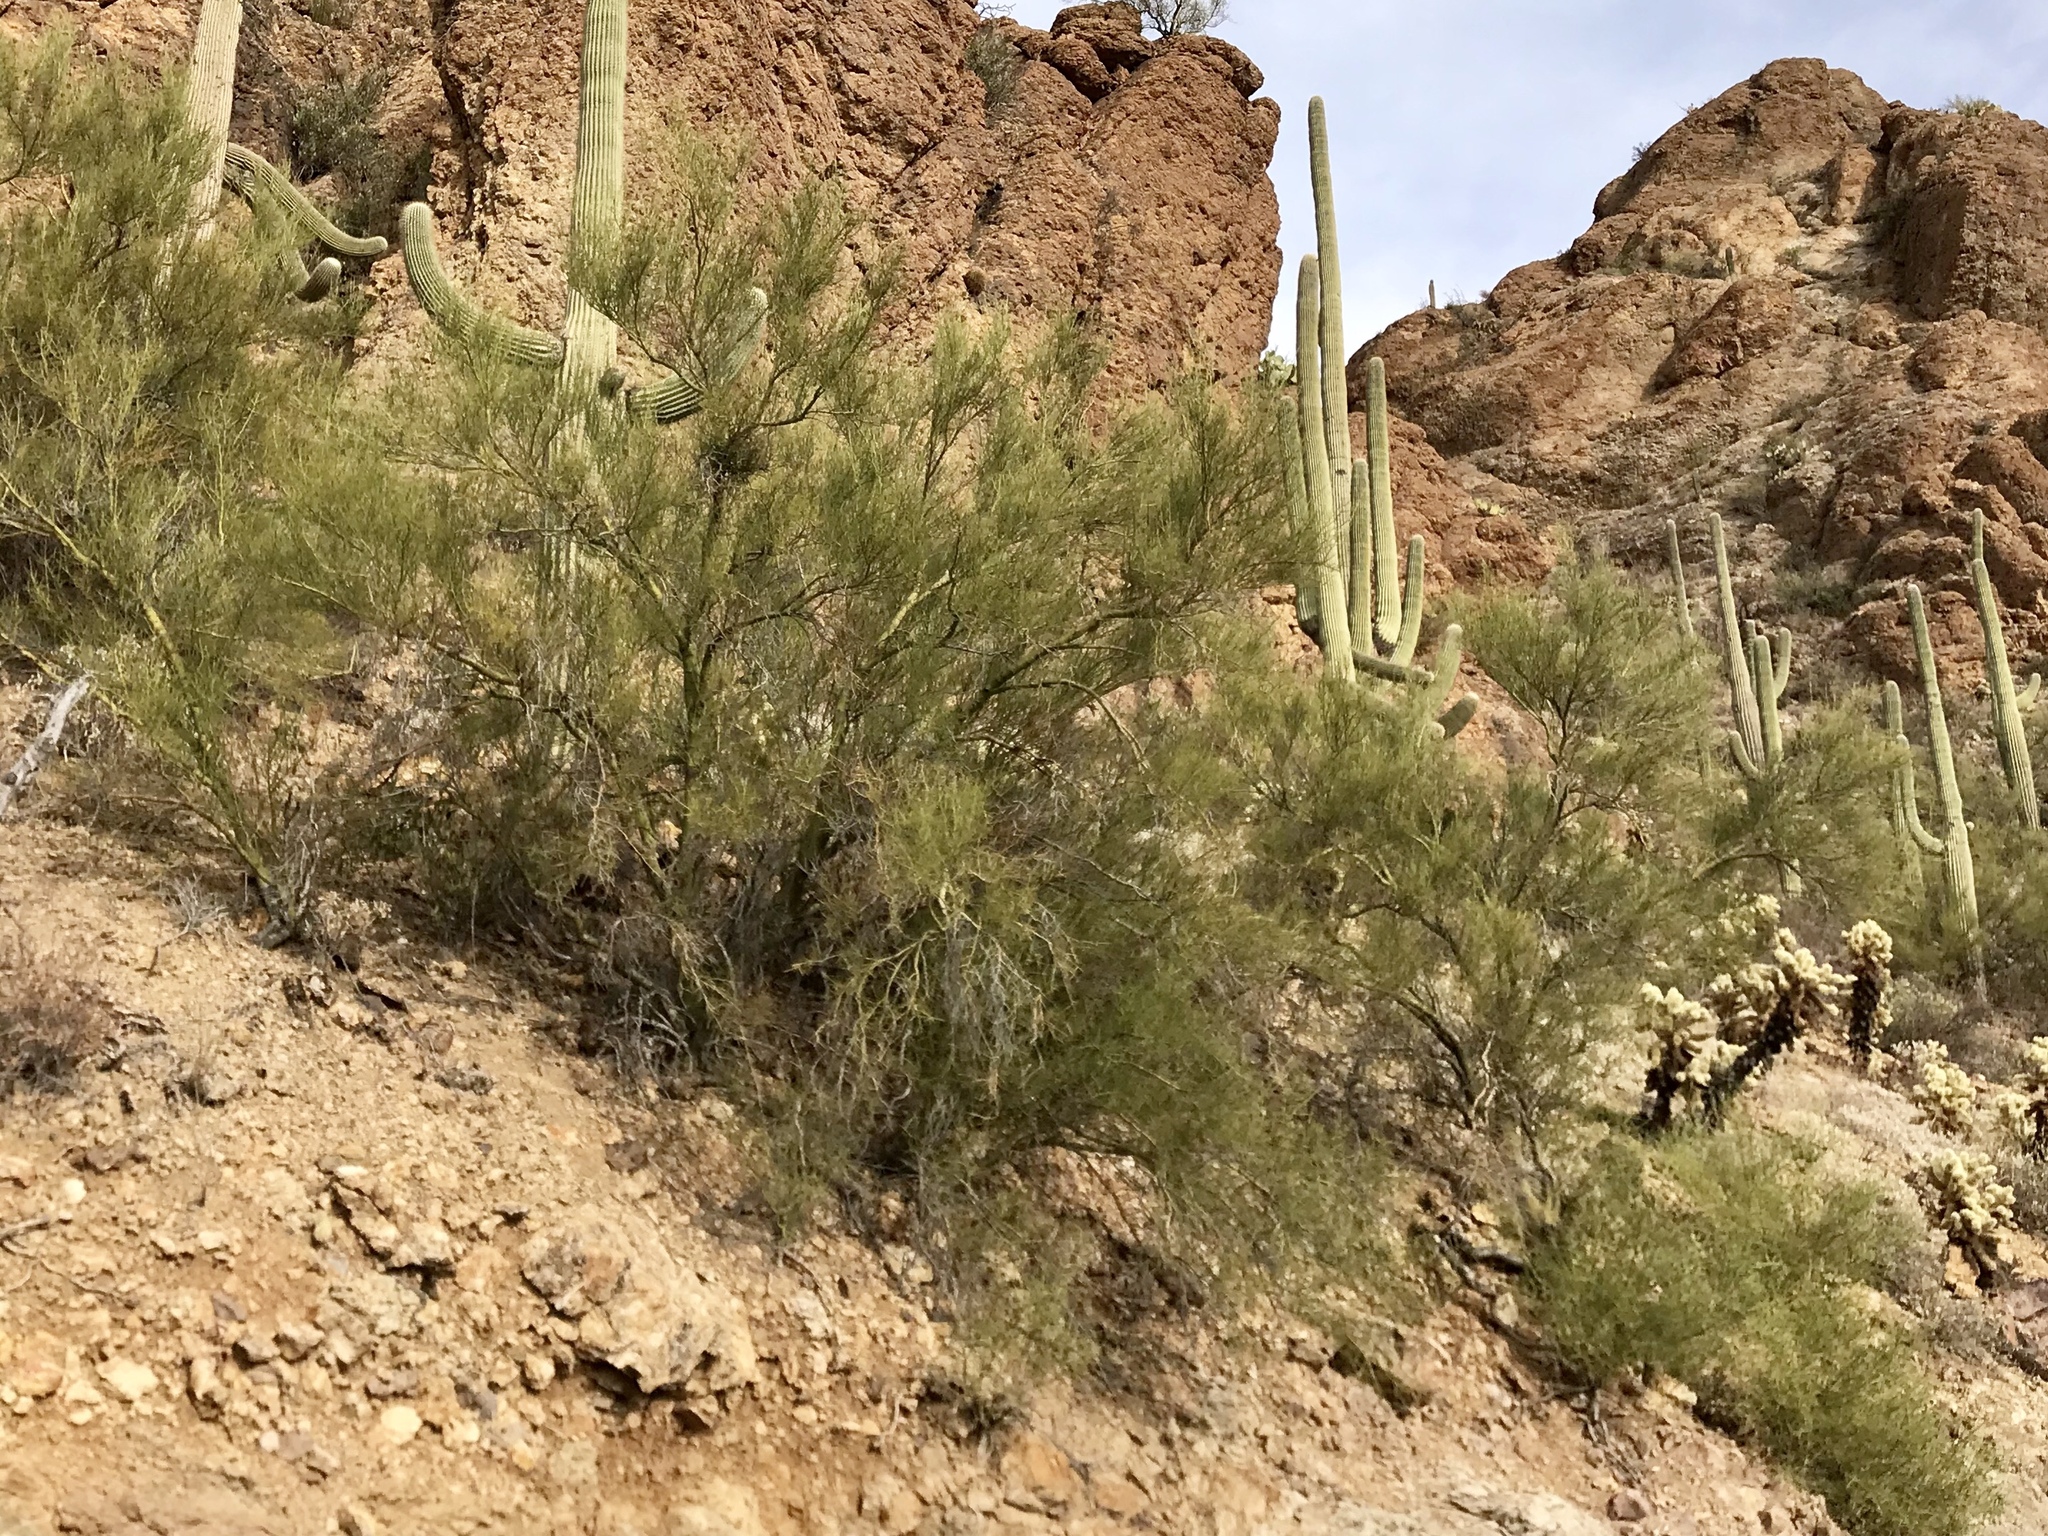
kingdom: Plantae
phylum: Tracheophyta
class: Magnoliopsida
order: Fabales
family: Fabaceae
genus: Parkinsonia
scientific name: Parkinsonia microphylla
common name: Yellow paloverde
